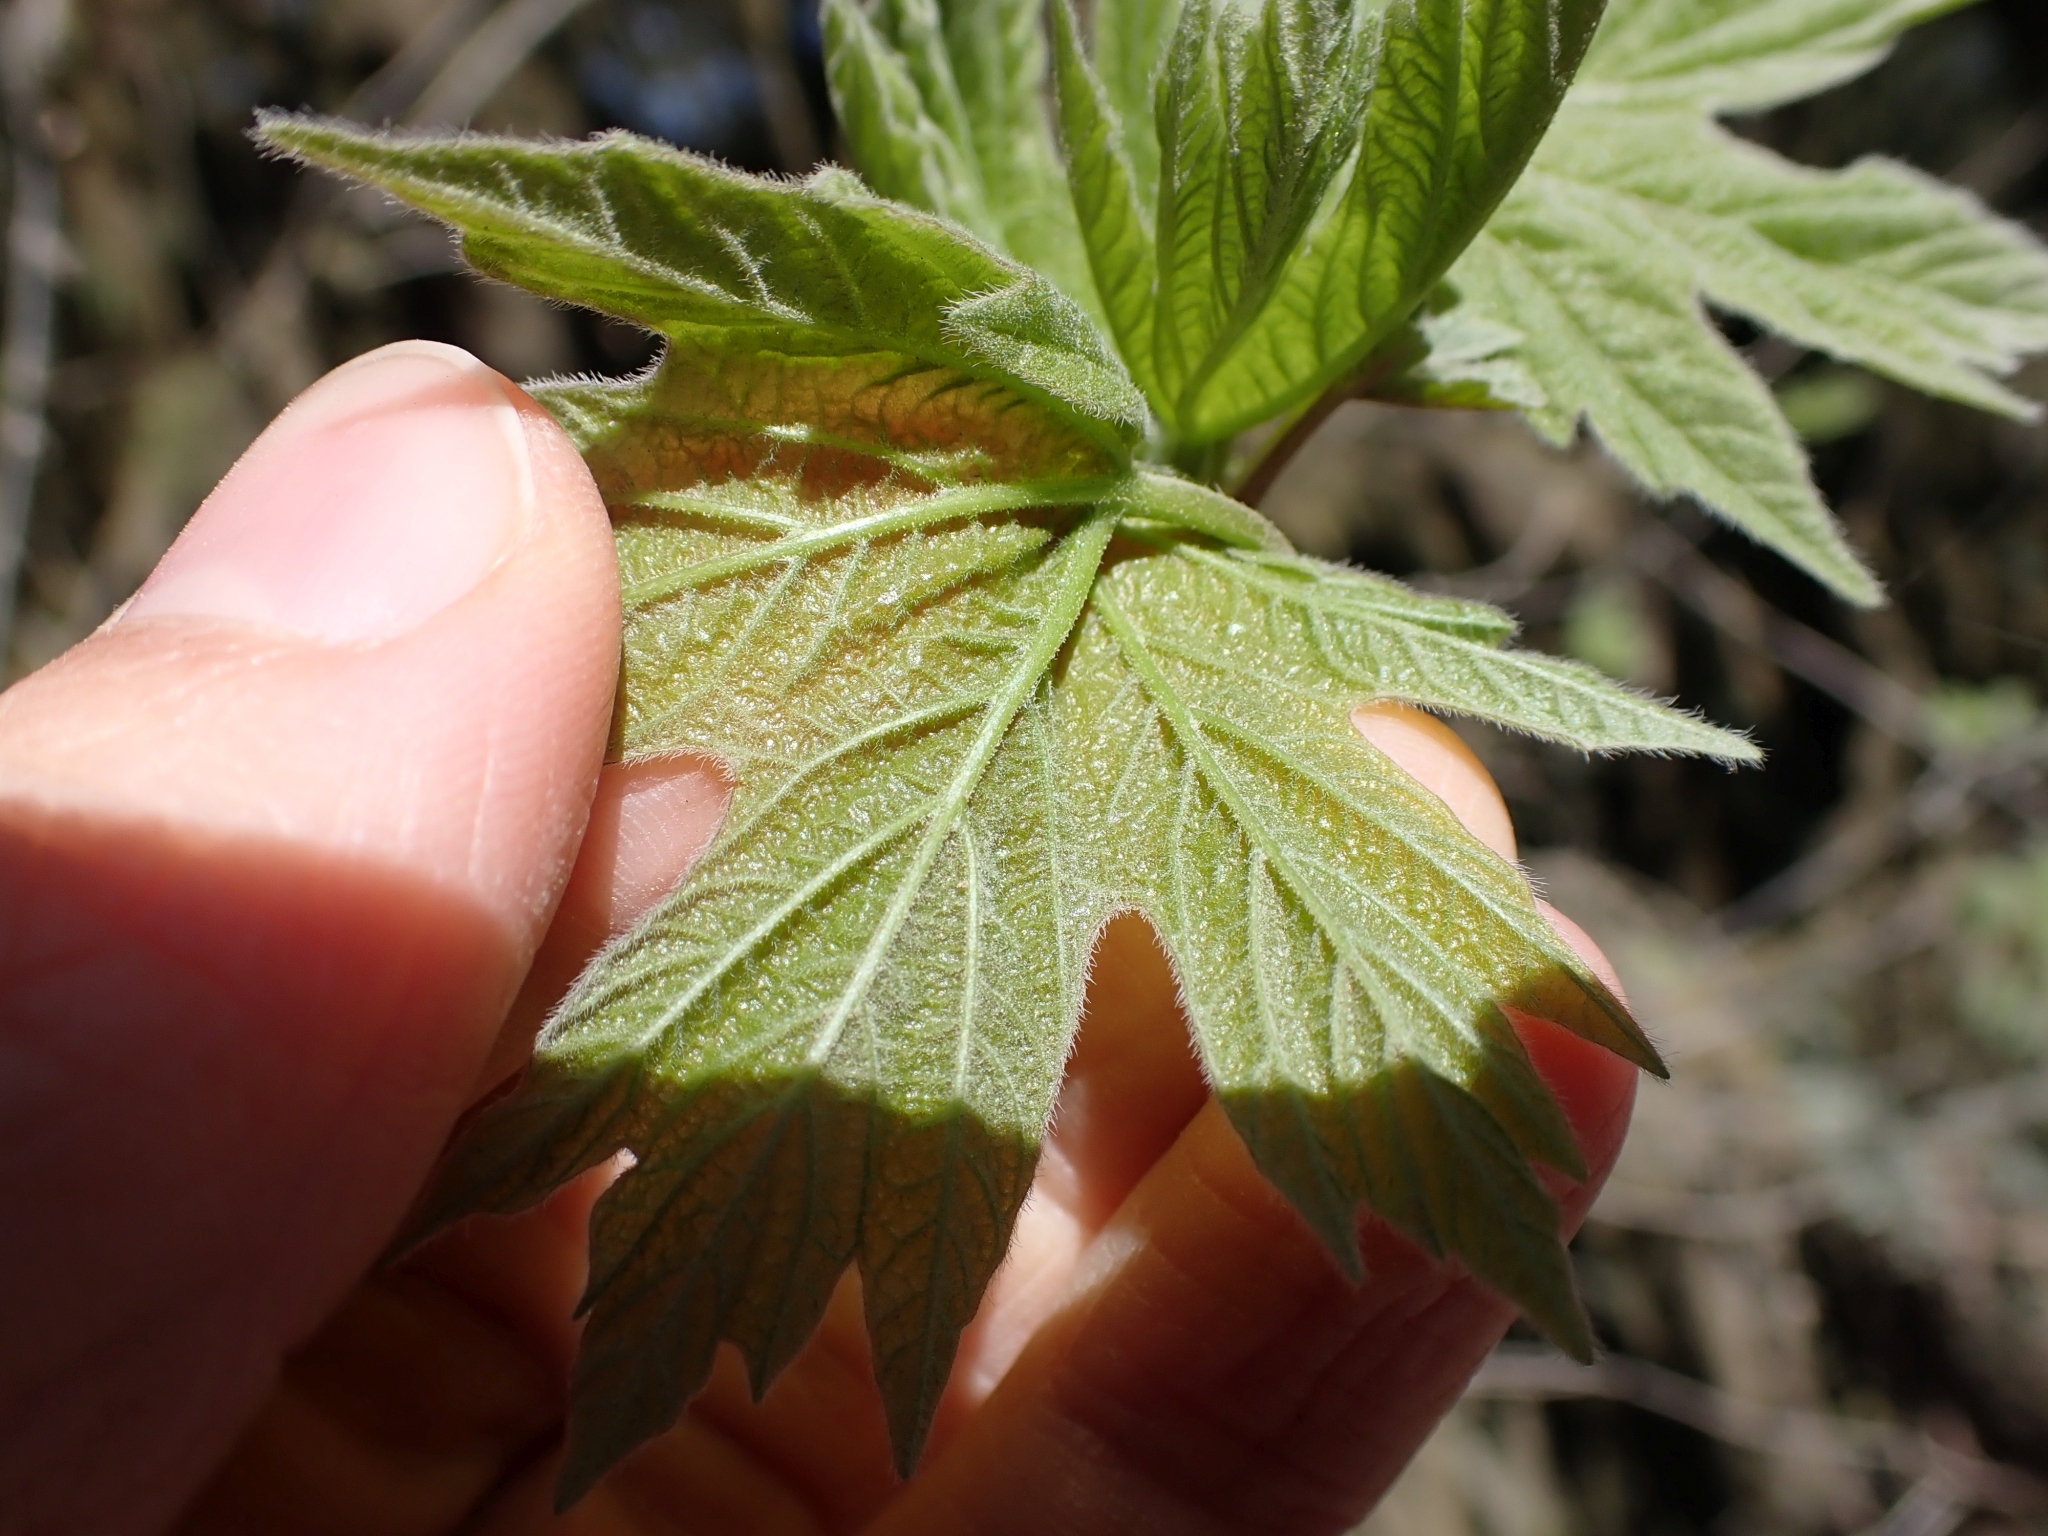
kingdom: Plantae
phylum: Tracheophyta
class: Magnoliopsida
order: Sapindales
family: Sapindaceae
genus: Acer
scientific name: Acer macrophyllum
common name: Oregon maple
